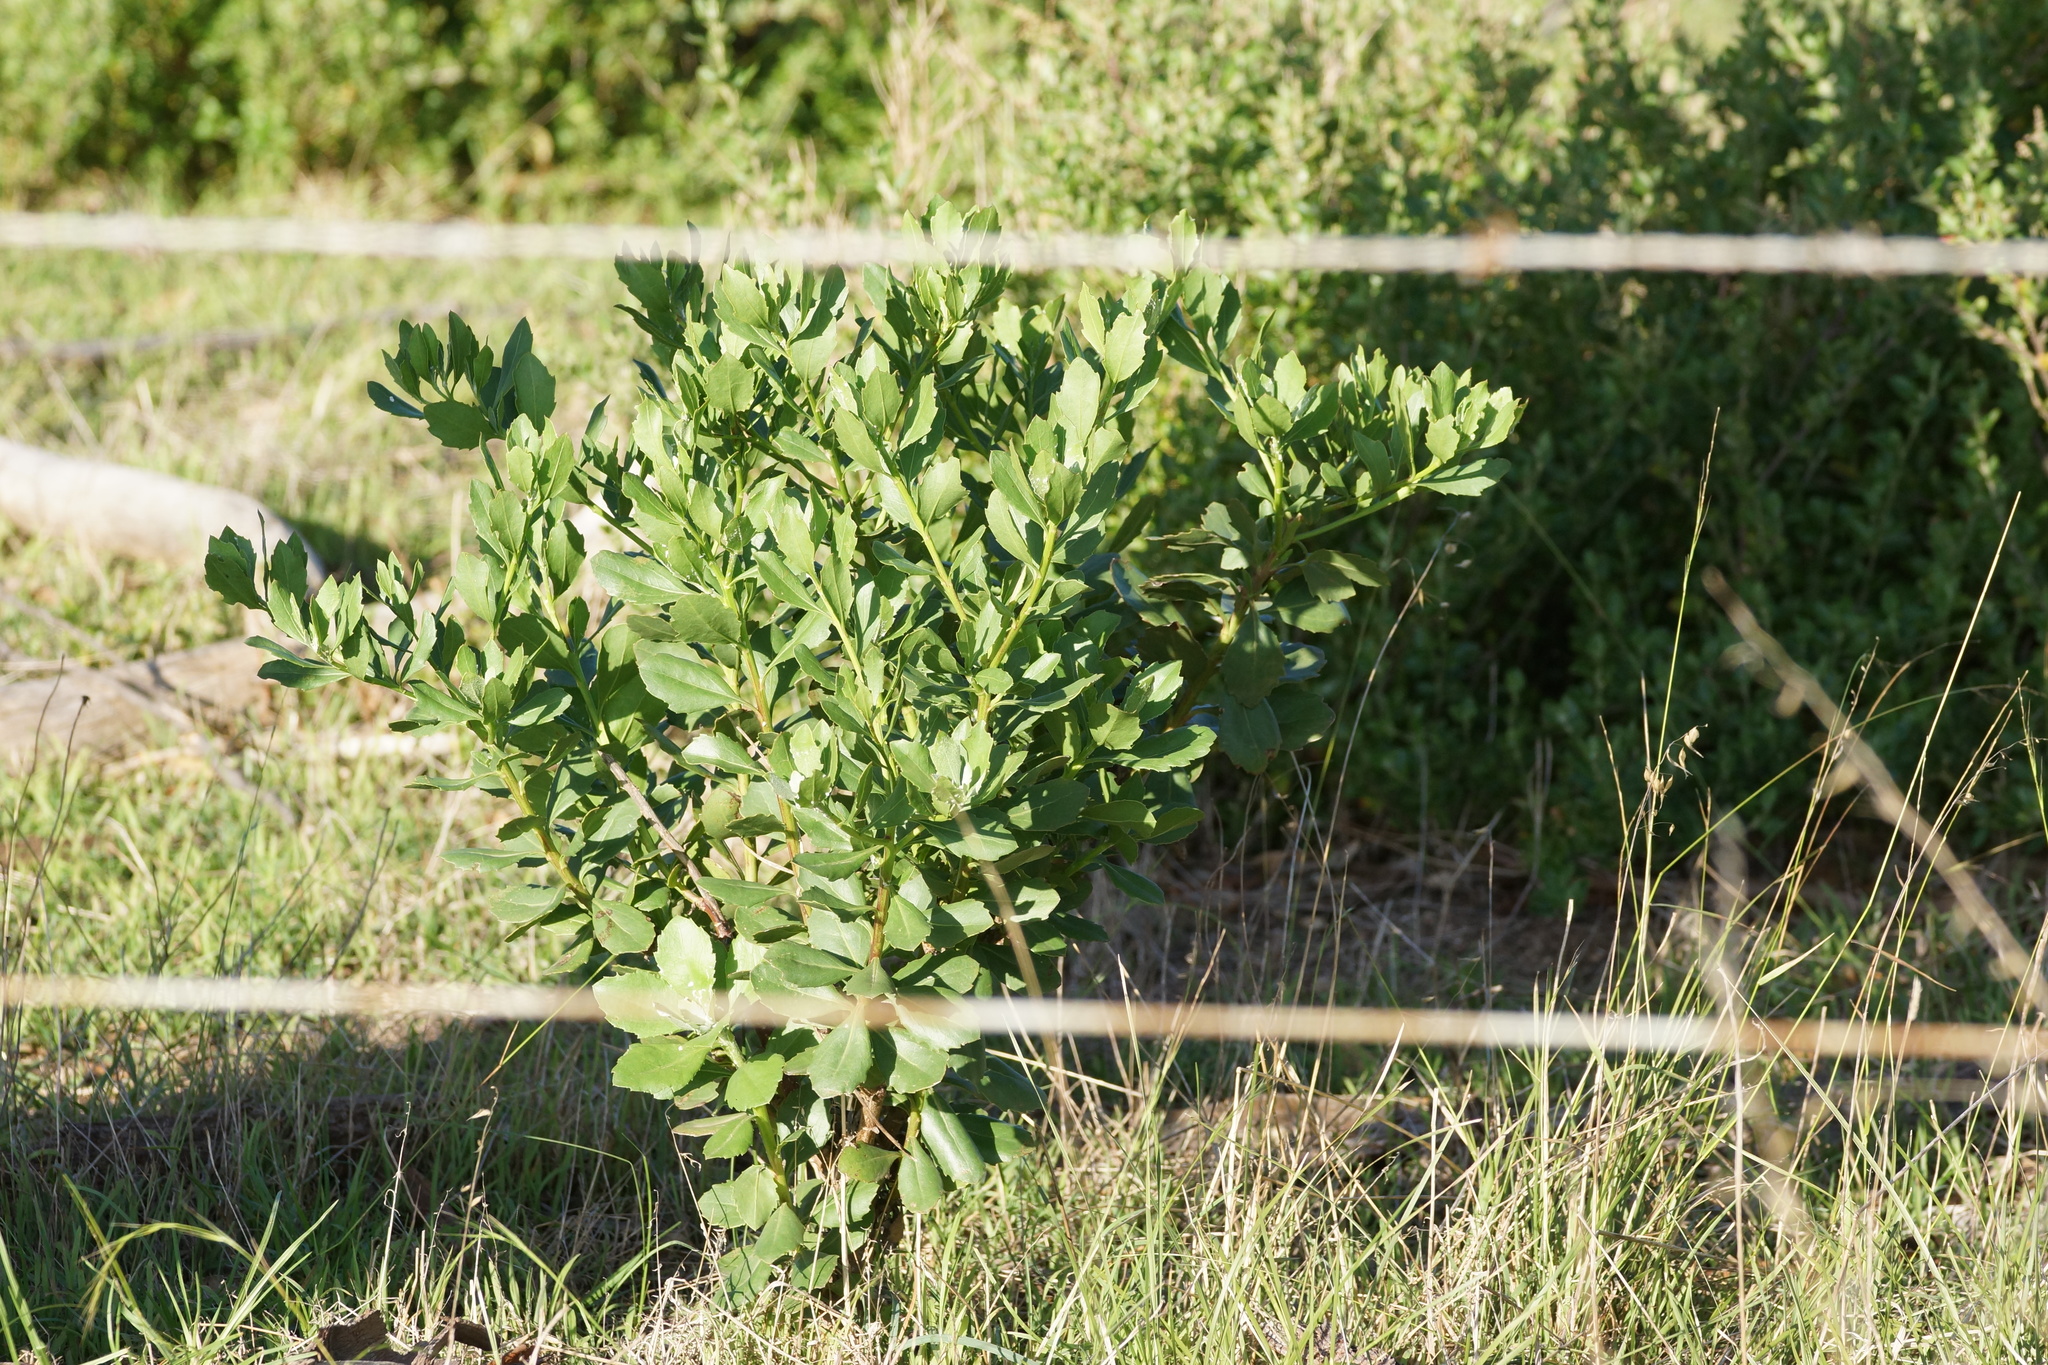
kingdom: Plantae
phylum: Tracheophyta
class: Magnoliopsida
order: Asterales
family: Asteraceae
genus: Osteospermum
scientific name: Osteospermum moniliferum
